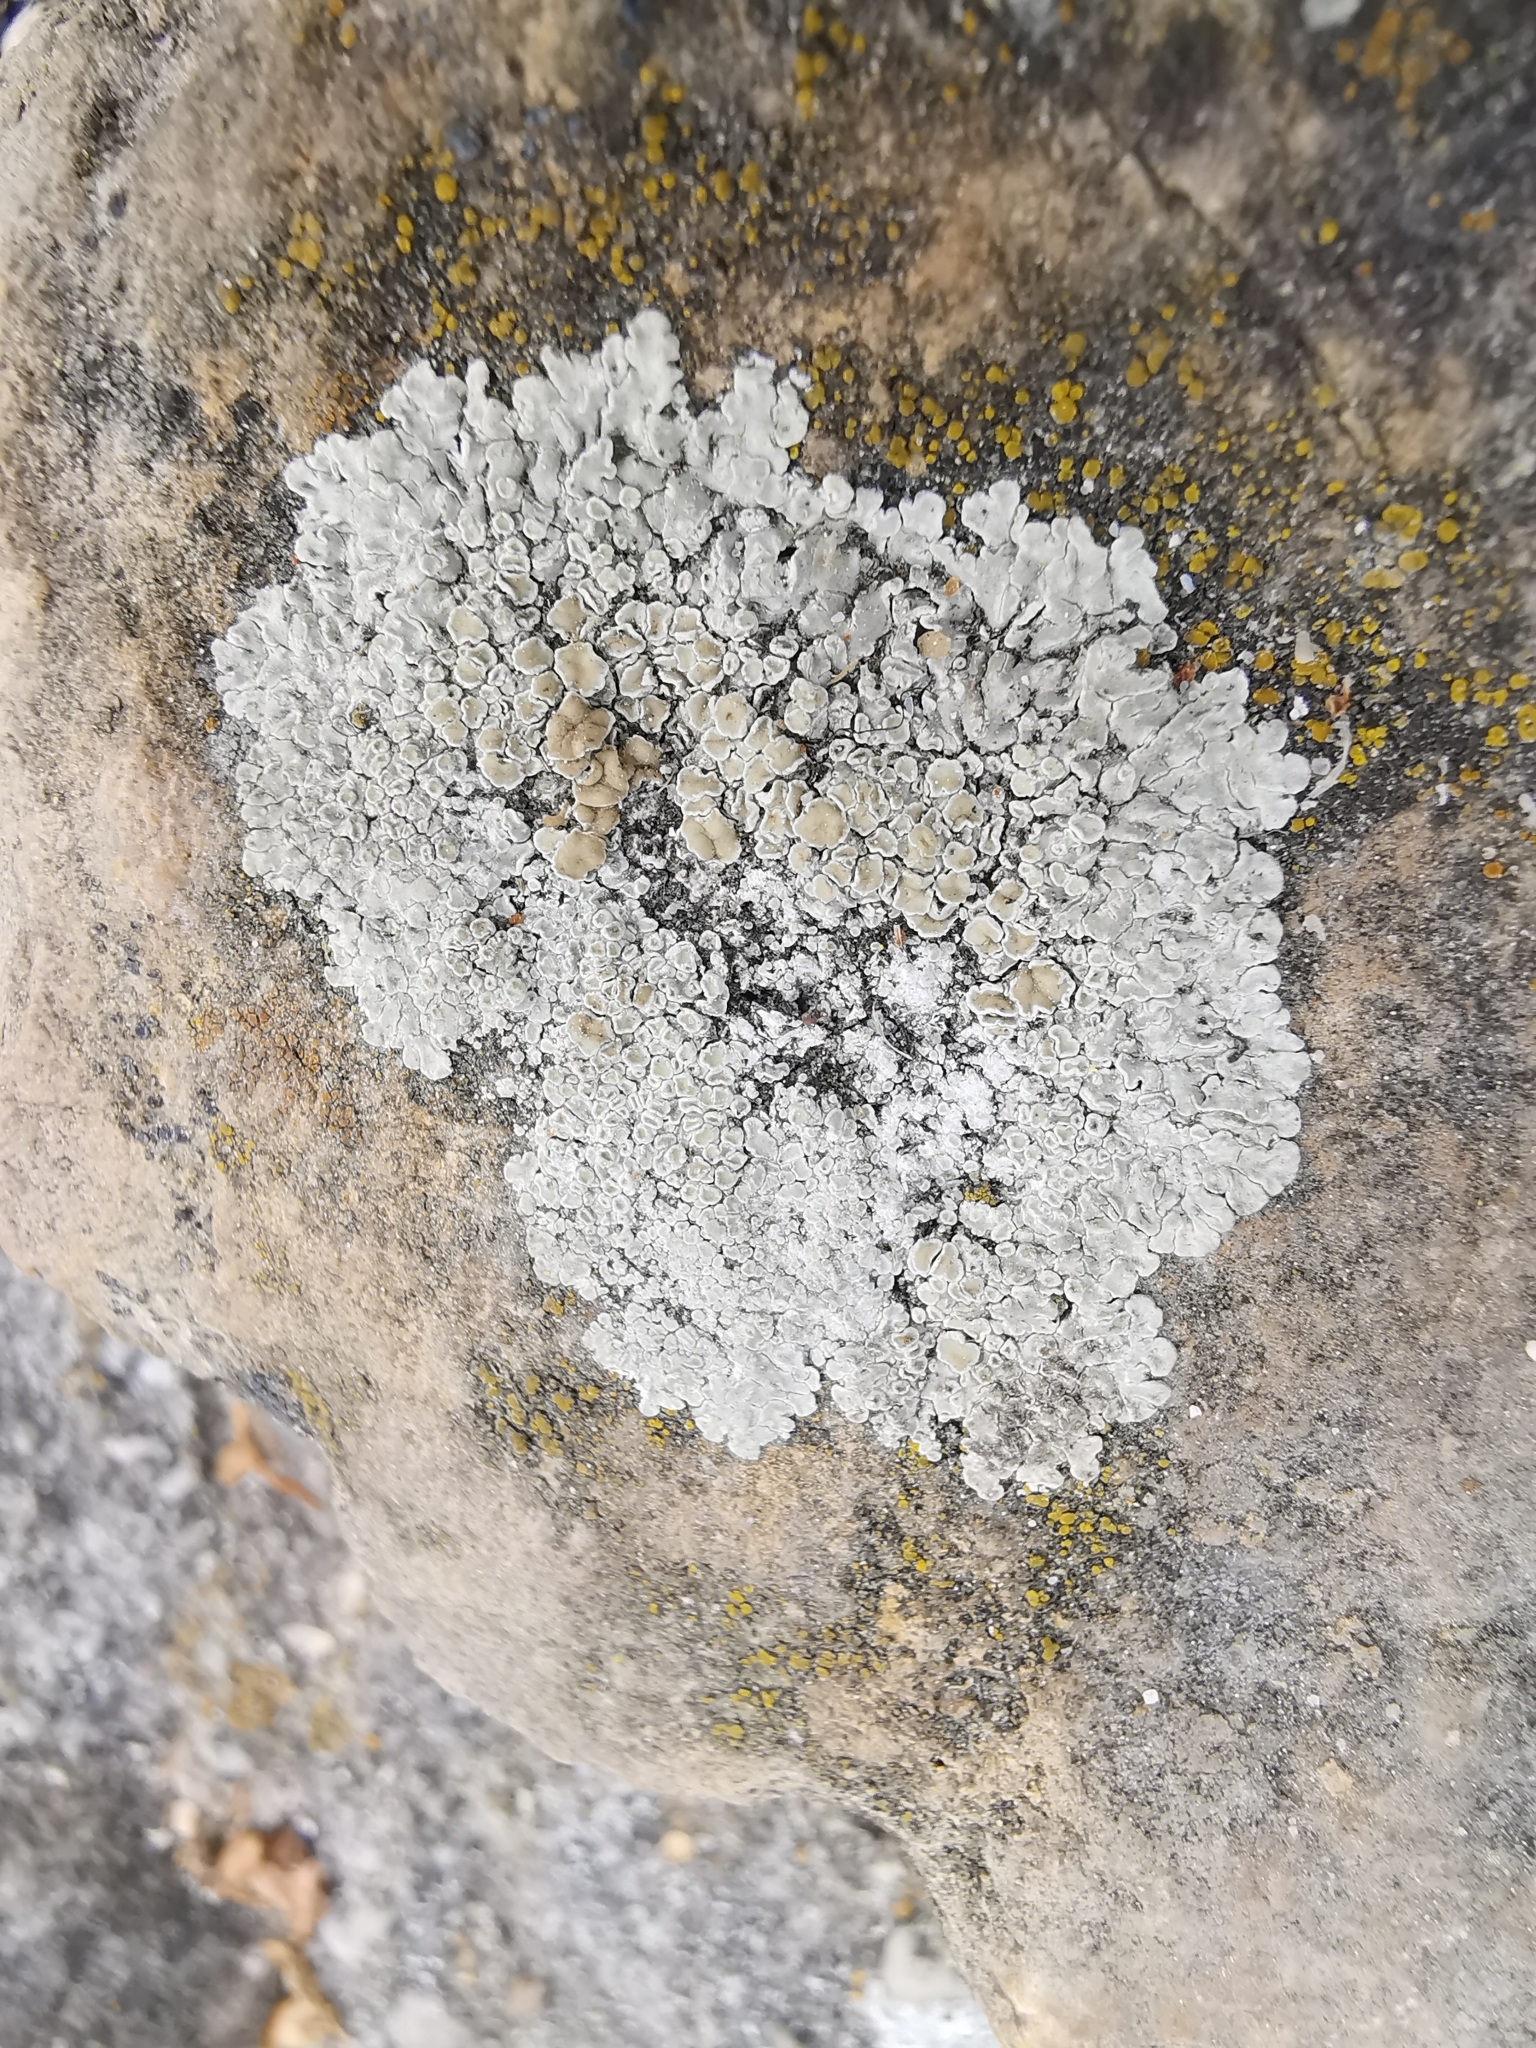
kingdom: Fungi
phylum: Ascomycota
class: Lecanoromycetes
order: Lecanorales
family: Lecanoraceae
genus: Protoparmeliopsis
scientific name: Protoparmeliopsis muralis
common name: Stonewall rim lichen
